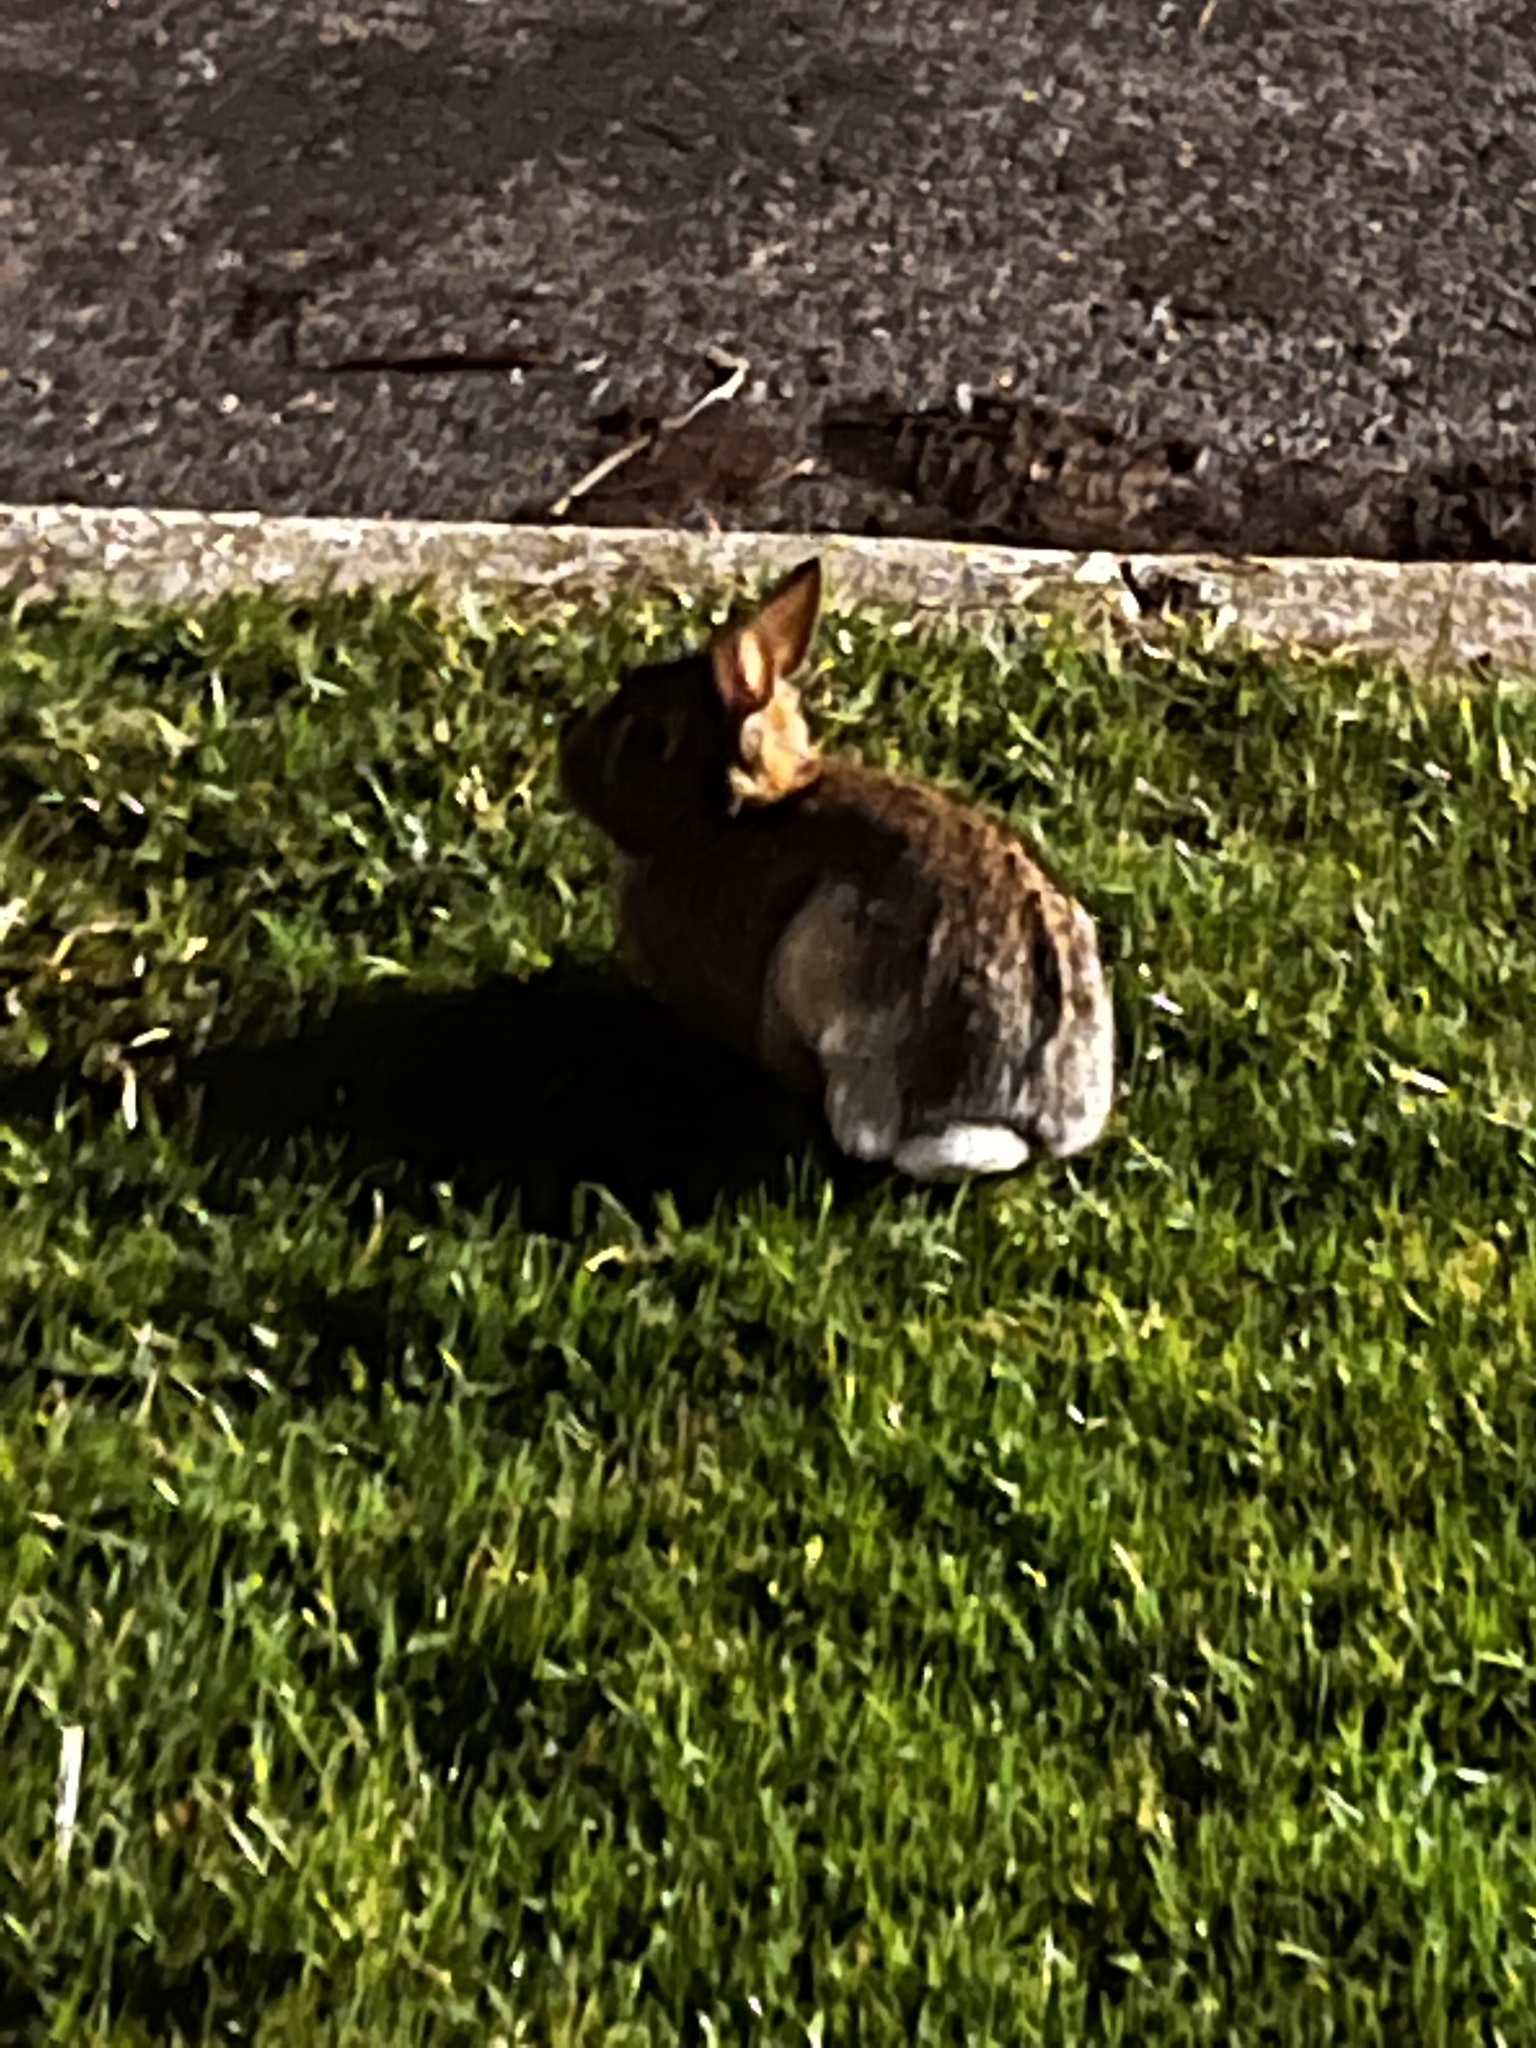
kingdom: Animalia
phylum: Chordata
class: Mammalia
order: Lagomorpha
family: Leporidae
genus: Sylvilagus
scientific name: Sylvilagus floridanus
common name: Eastern cottontail
